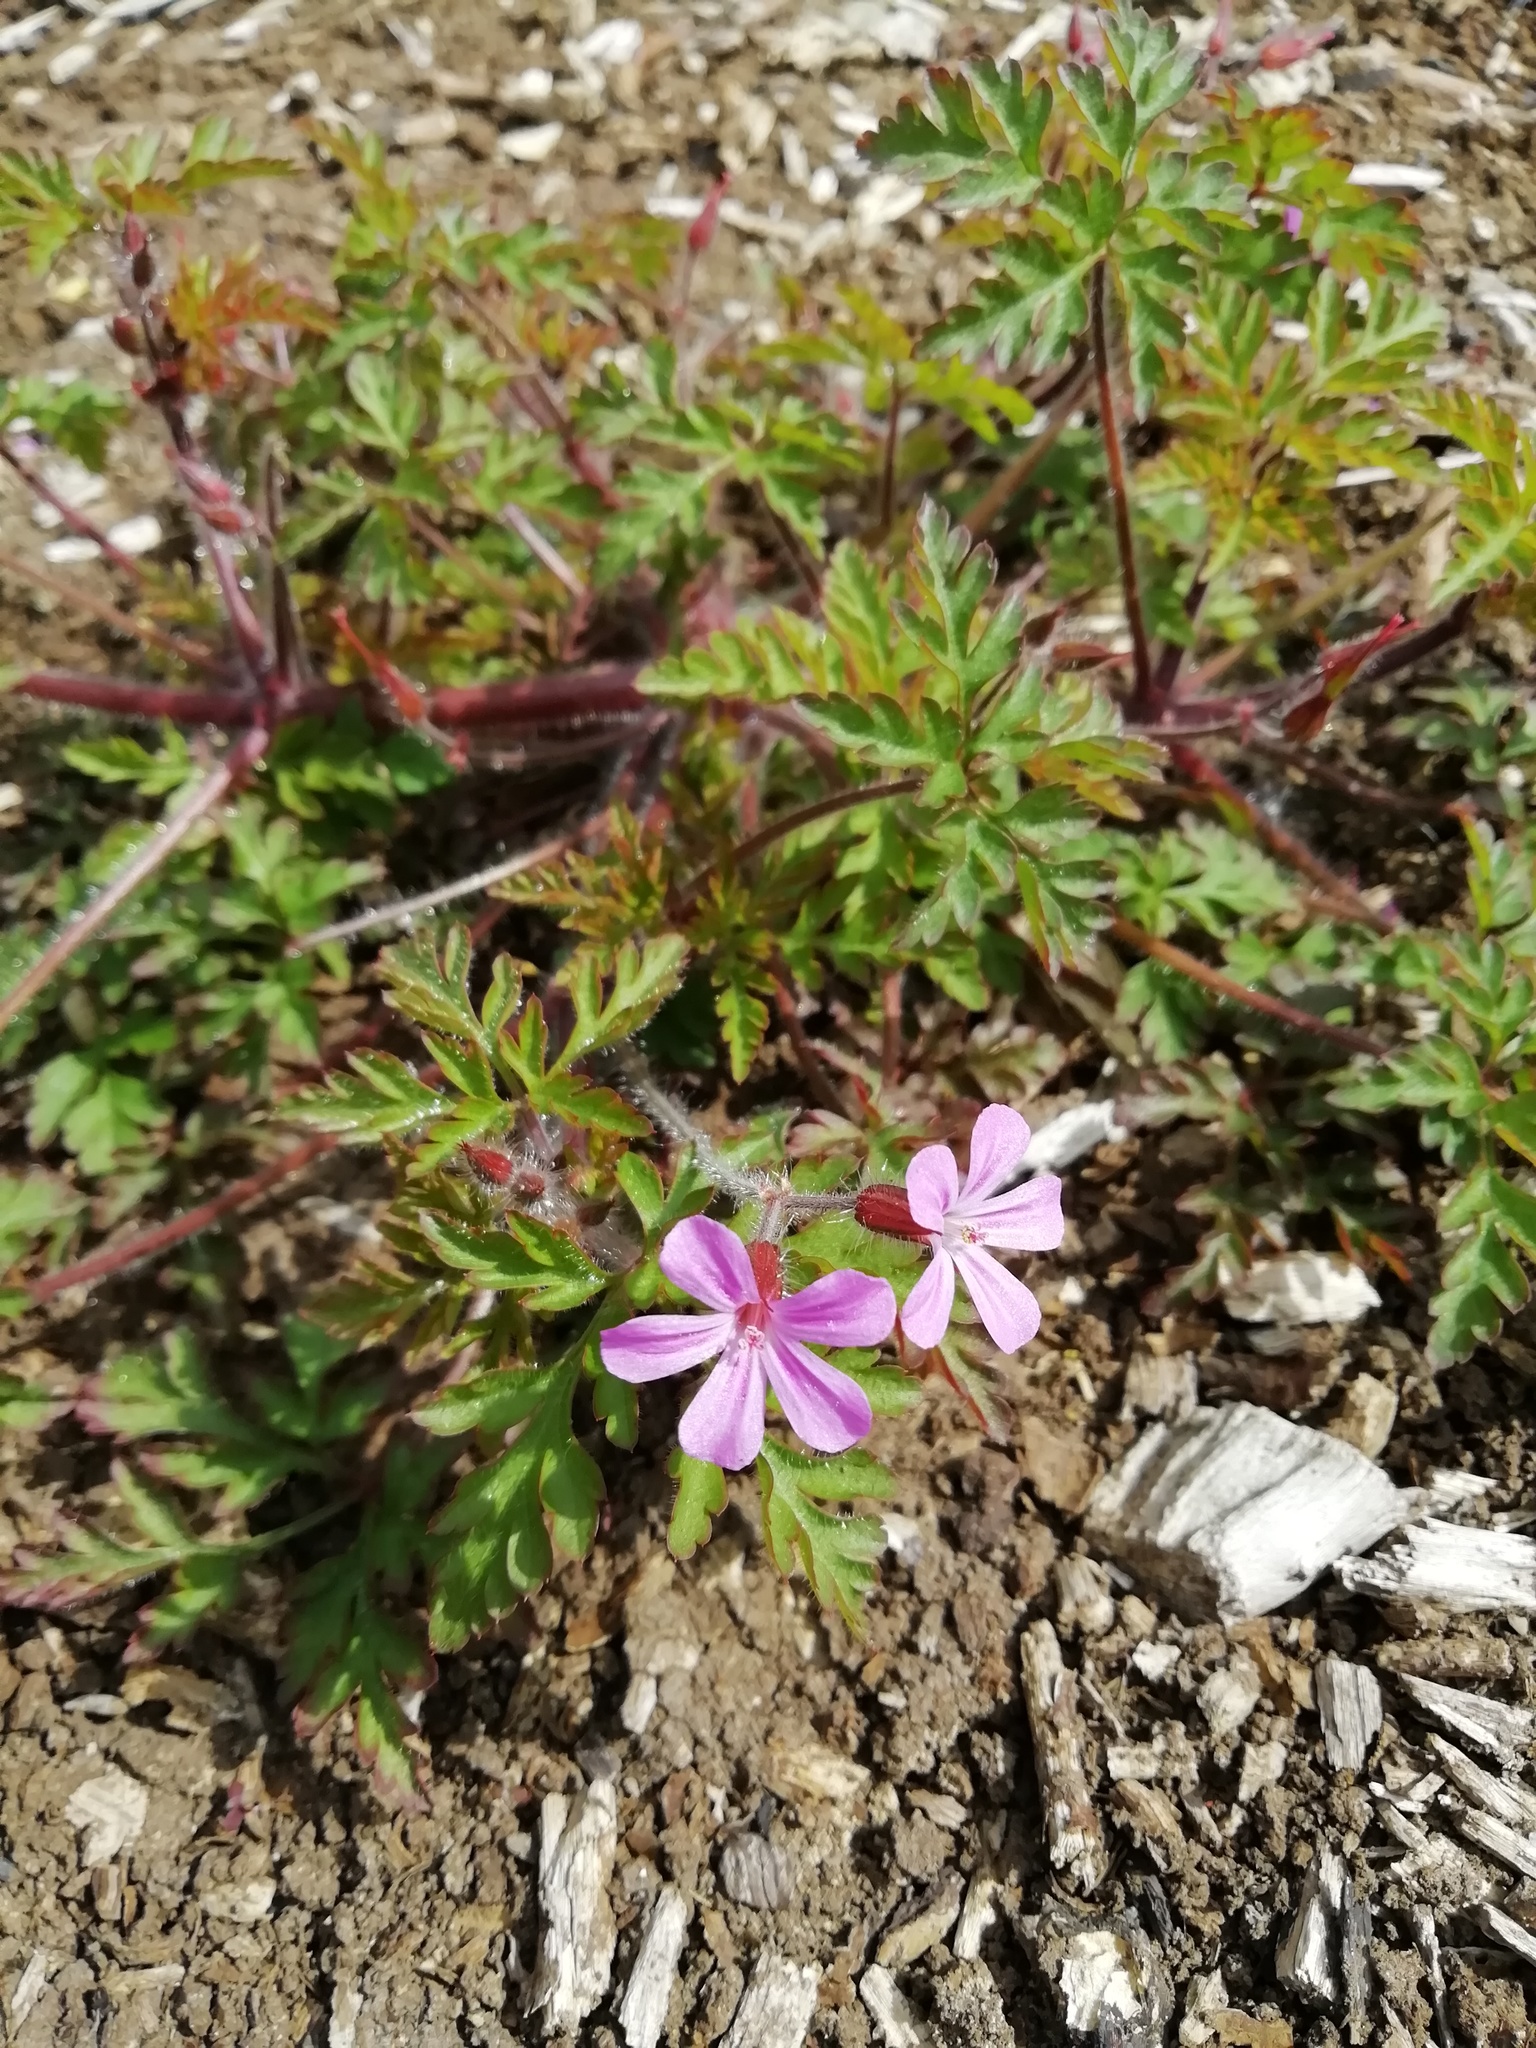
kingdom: Plantae
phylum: Tracheophyta
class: Magnoliopsida
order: Geraniales
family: Geraniaceae
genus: Geranium
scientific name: Geranium robertianum
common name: Herb-robert
